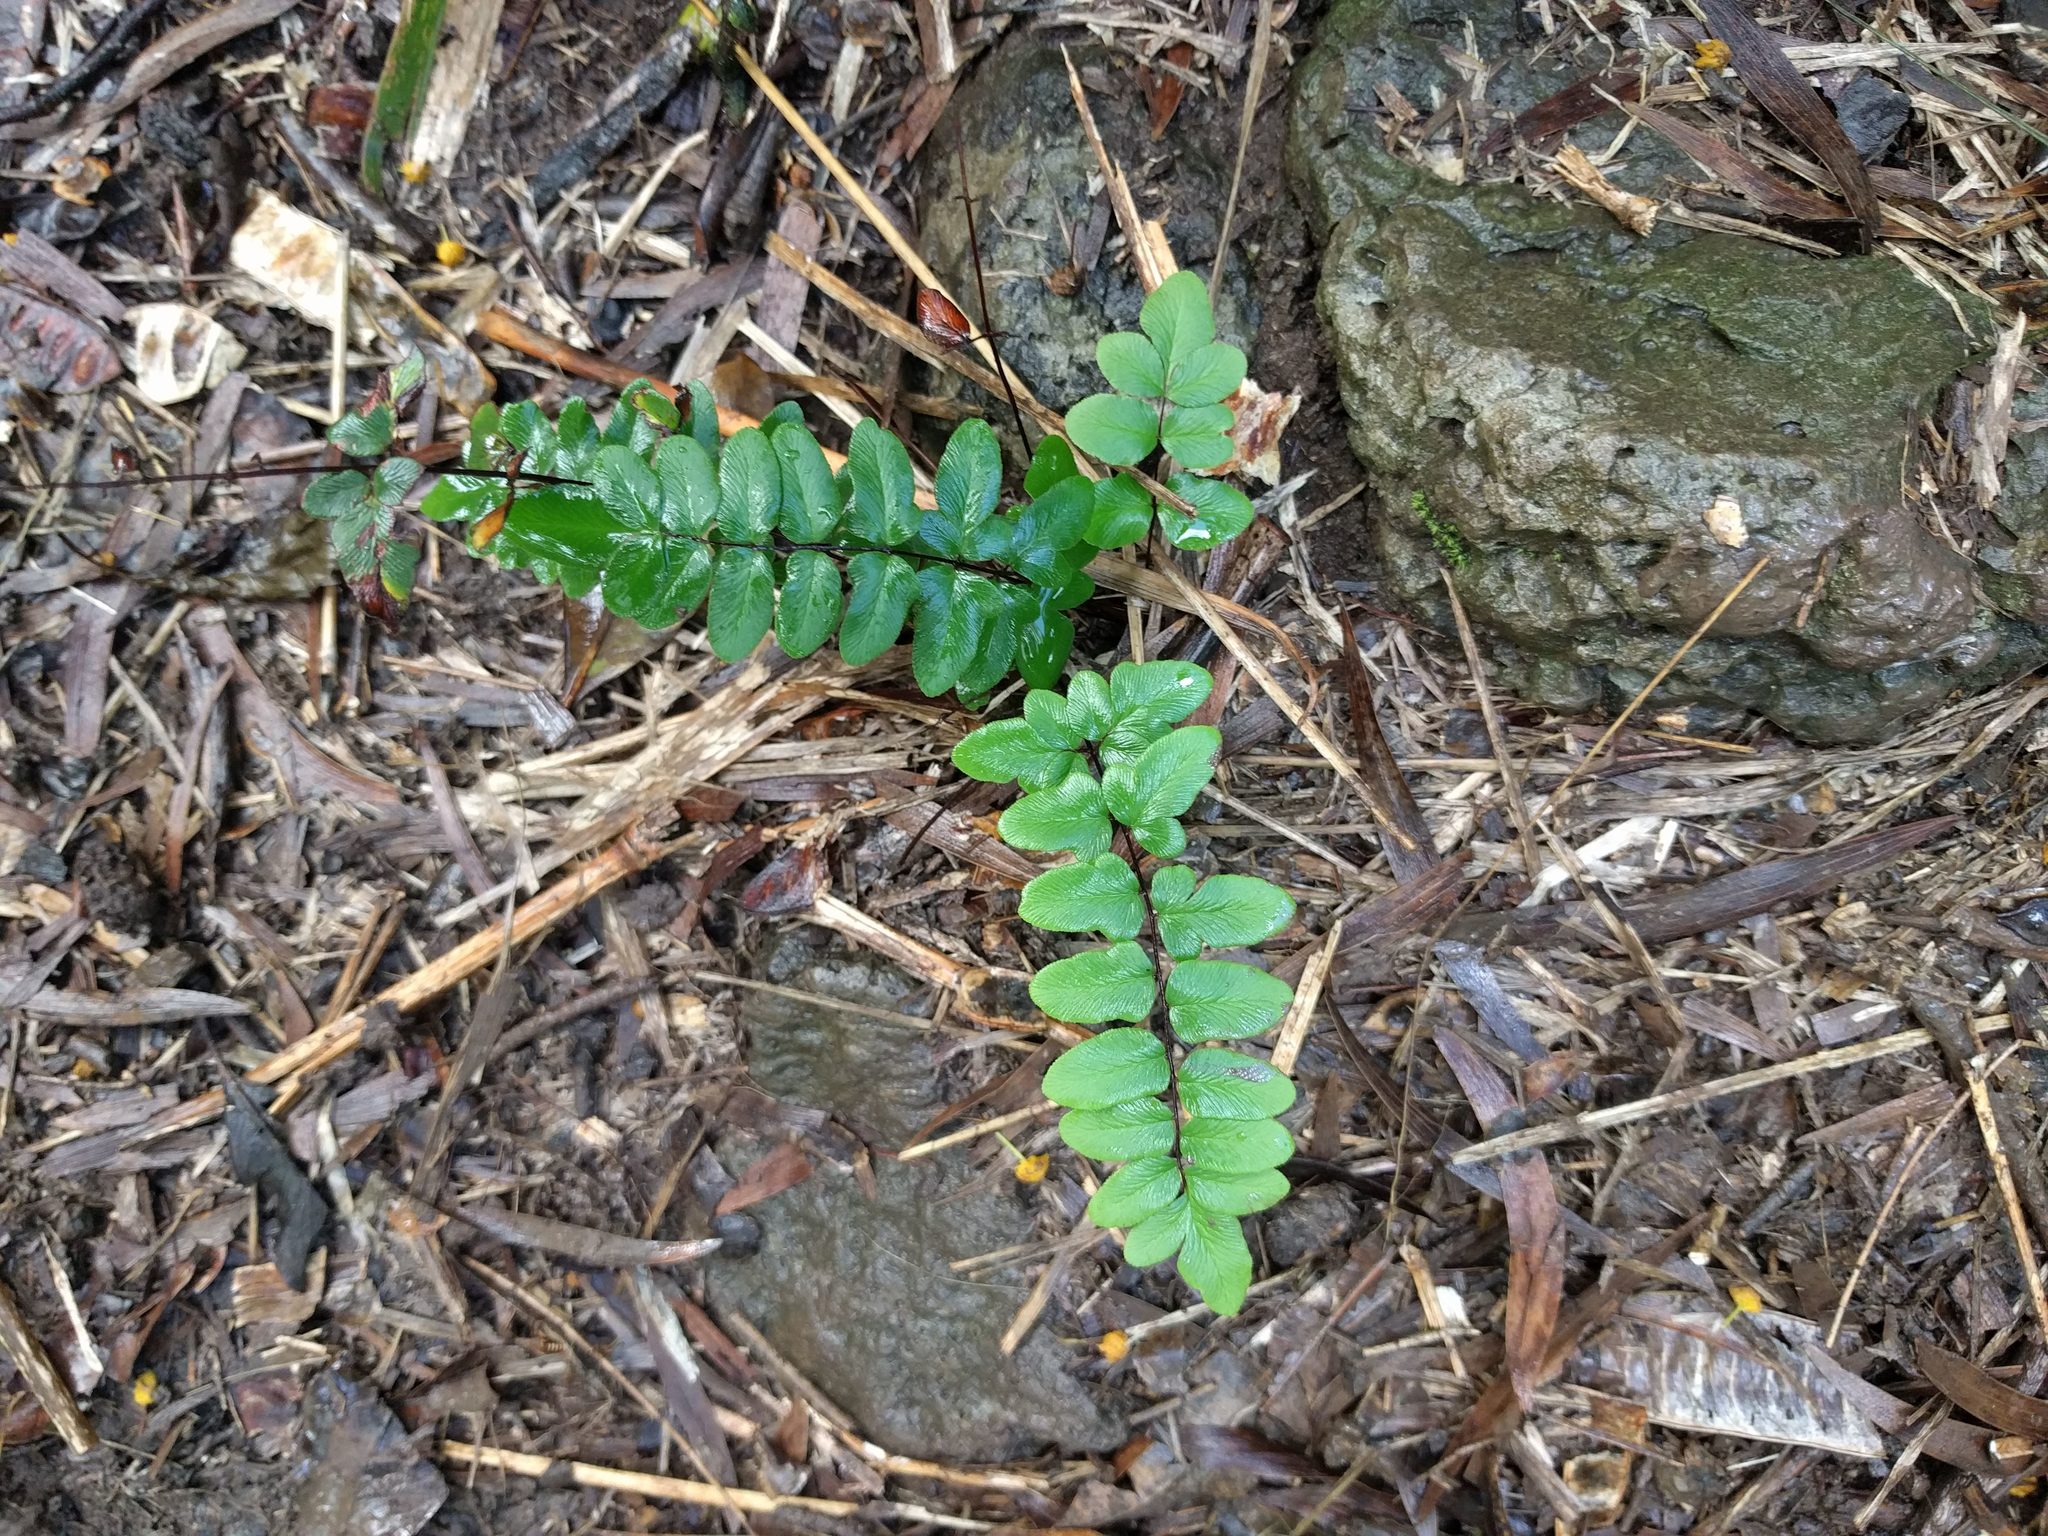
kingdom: Plantae
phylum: Tracheophyta
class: Polypodiopsida
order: Polypodiales
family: Pteridaceae
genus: Cheilanthes
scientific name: Cheilanthes viridis
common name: Green cliffbrake
